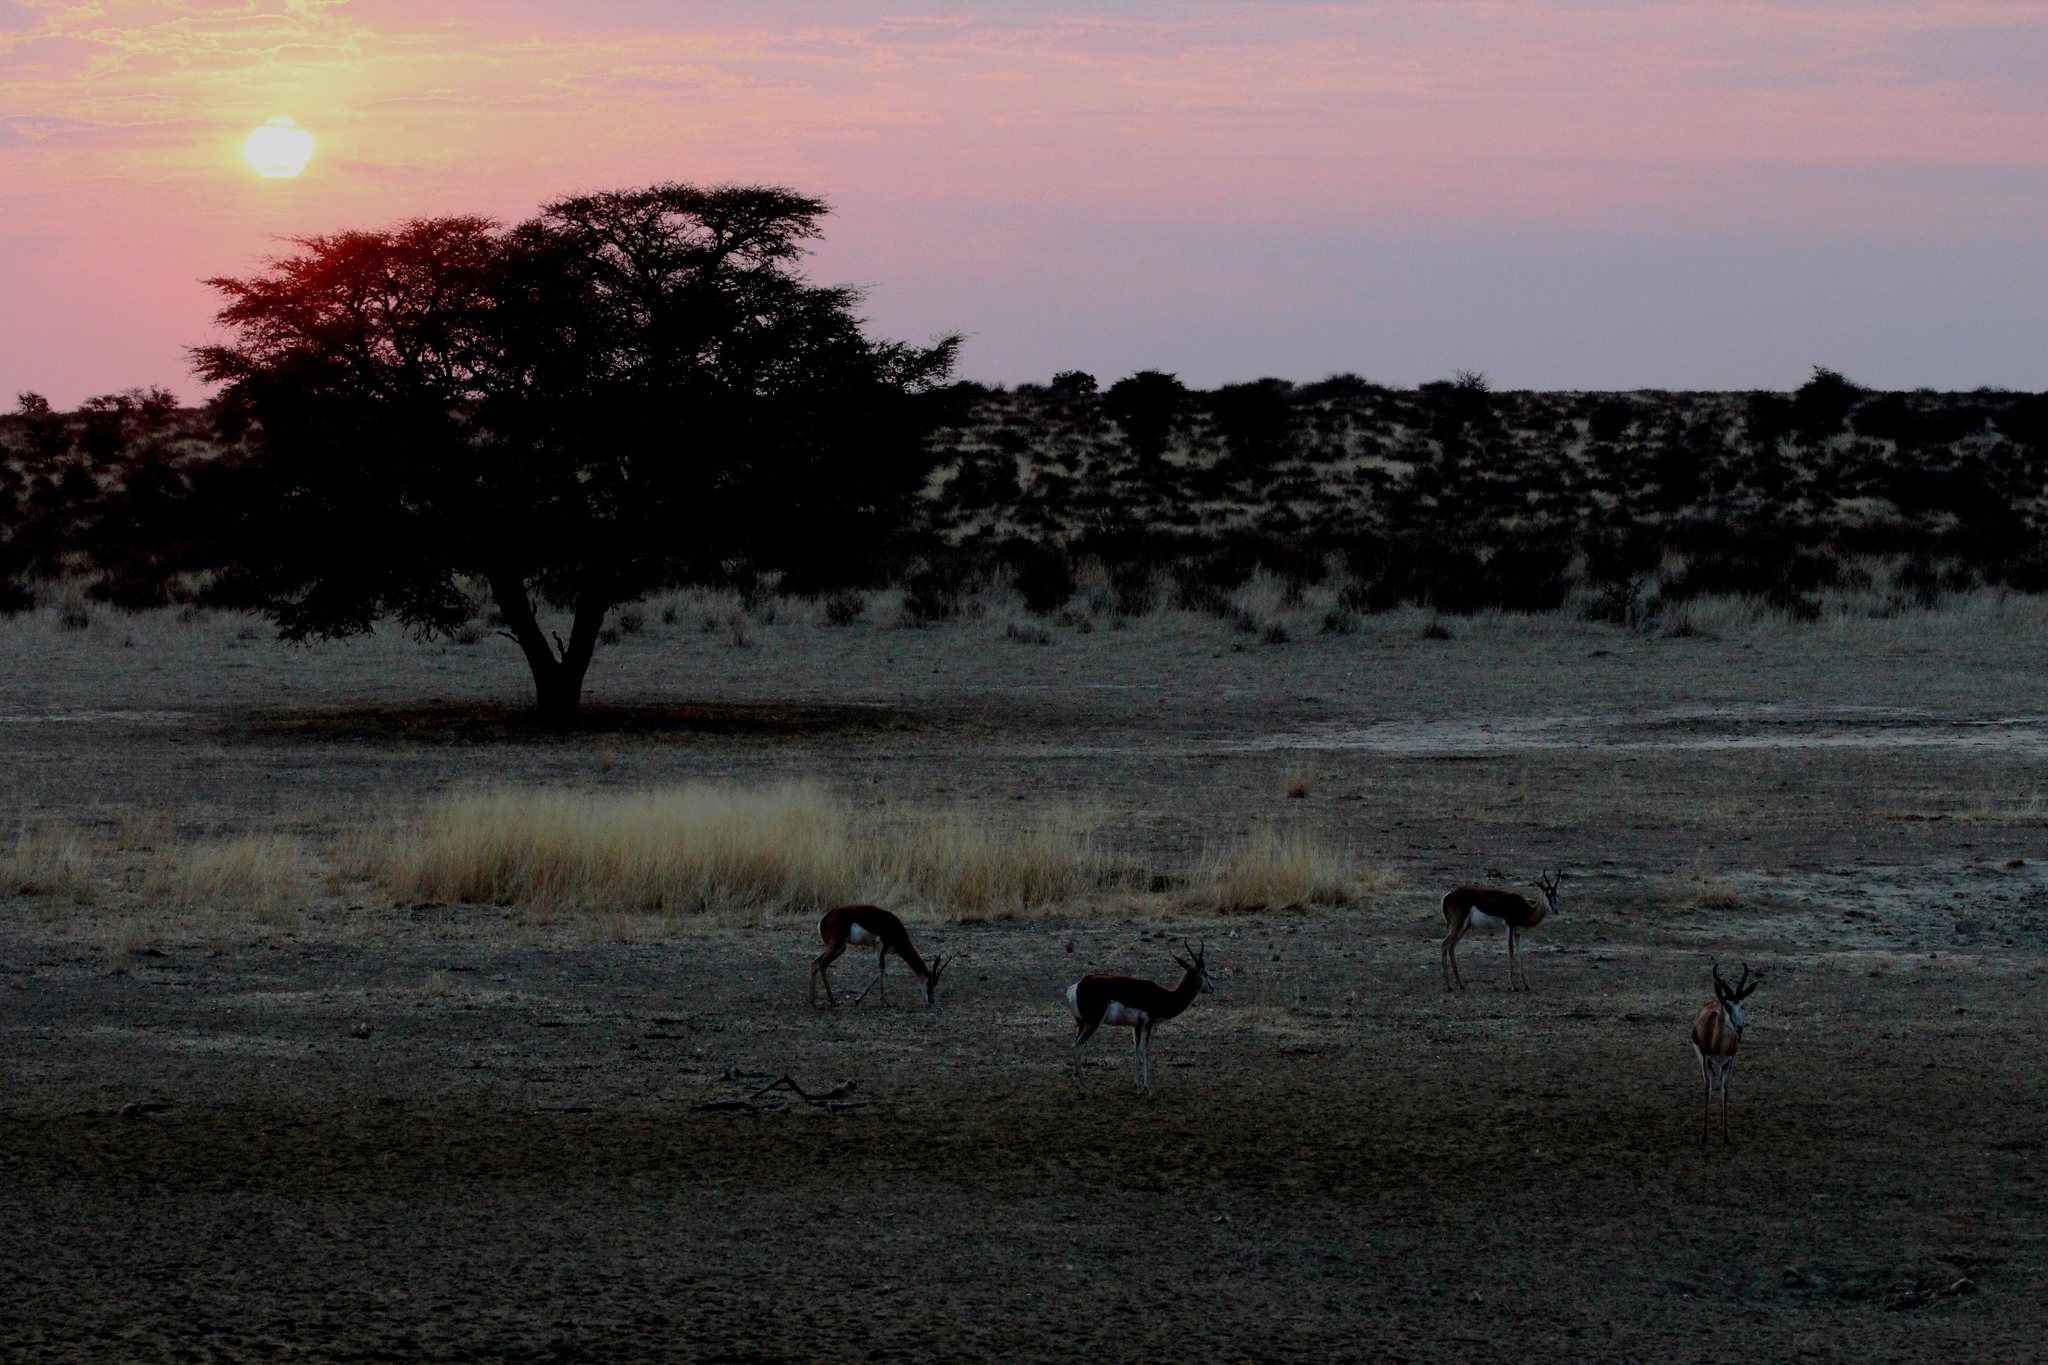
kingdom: Animalia
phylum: Chordata
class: Mammalia
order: Artiodactyla
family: Bovidae
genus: Antidorcas
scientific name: Antidorcas marsupialis
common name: Springbok
